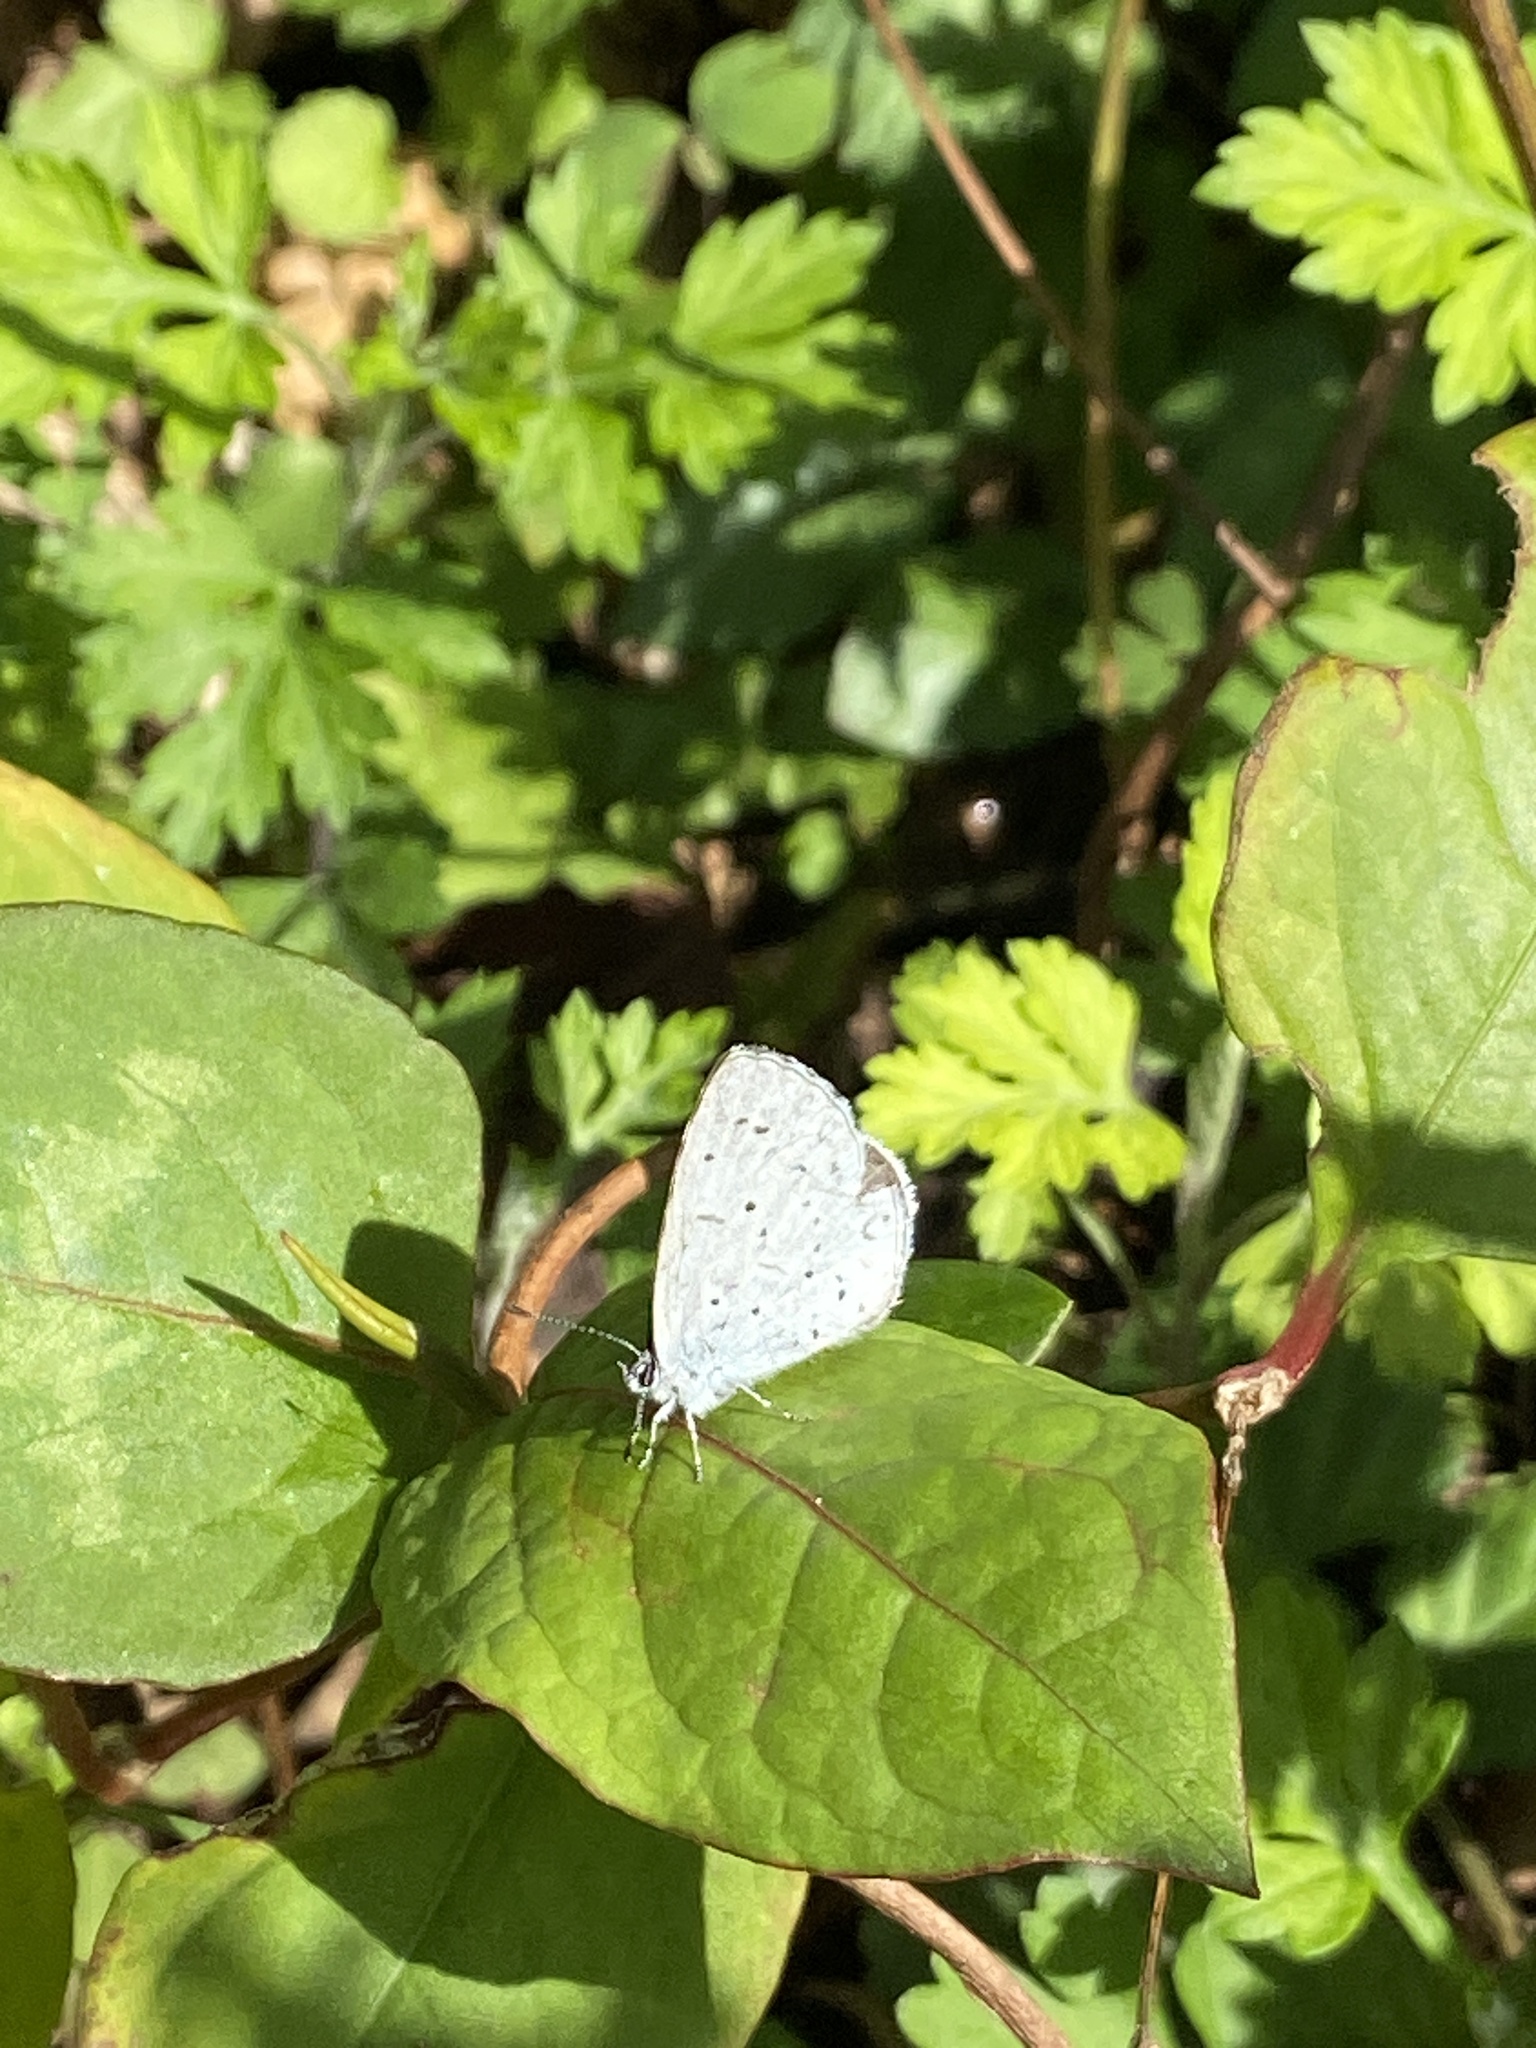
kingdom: Animalia
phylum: Arthropoda
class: Insecta
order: Lepidoptera
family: Lycaenidae
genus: Celastrina
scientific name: Celastrina argiolus
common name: Holly blue
